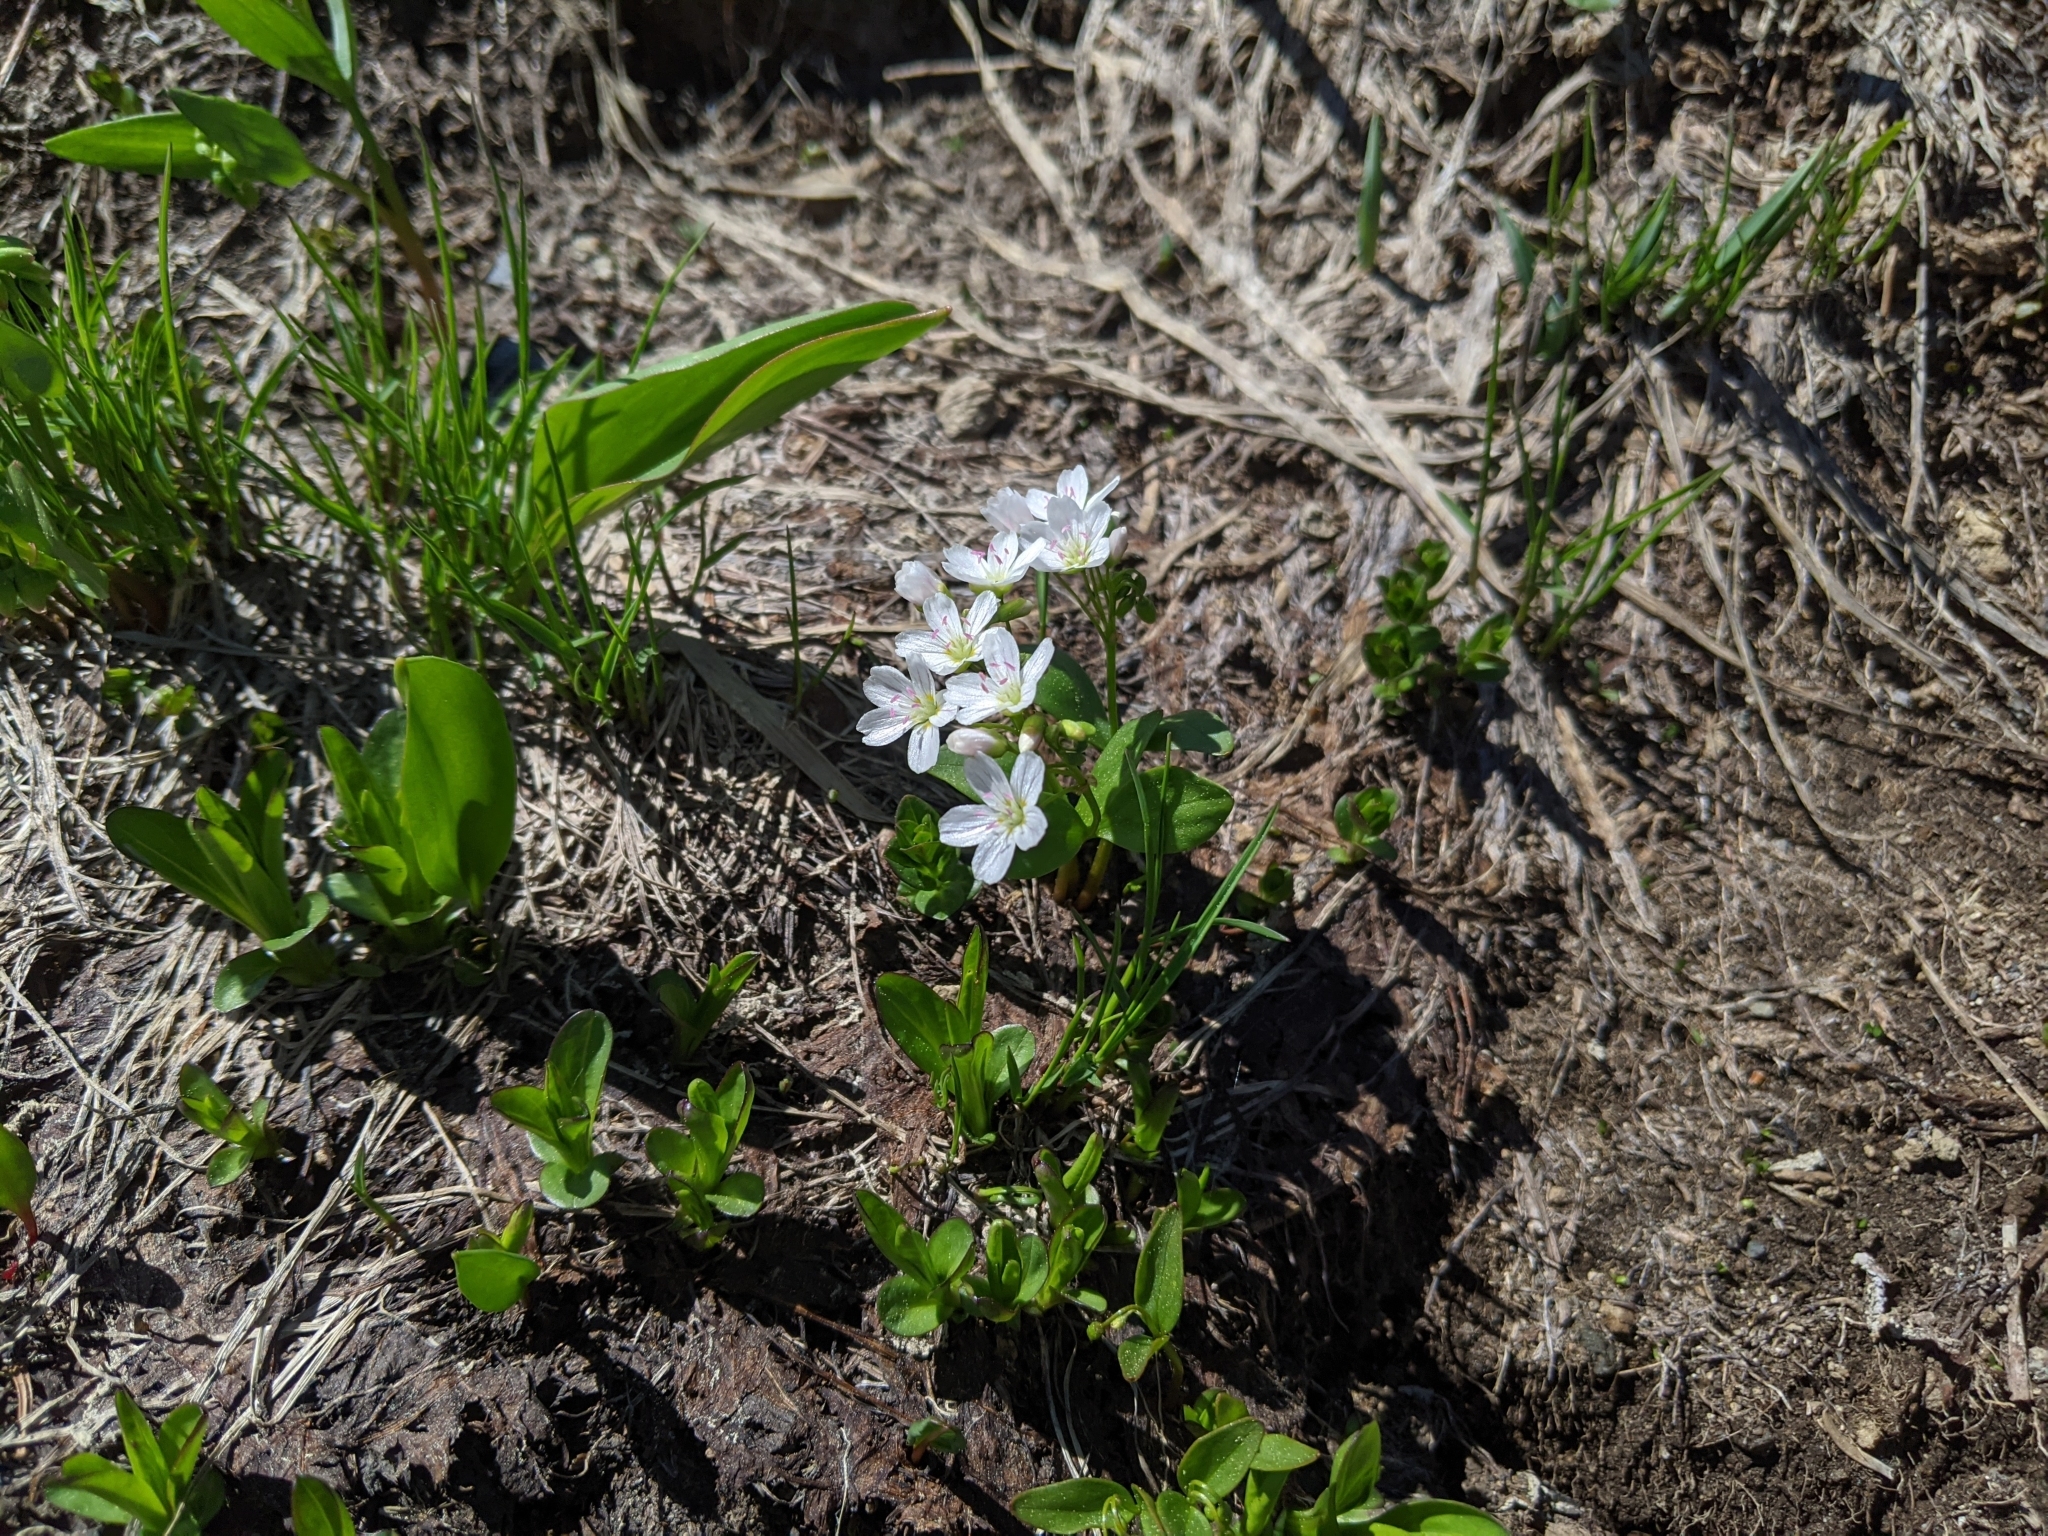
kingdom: Plantae
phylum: Tracheophyta
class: Magnoliopsida
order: Caryophyllales
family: Montiaceae
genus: Claytonia
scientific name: Claytonia lanceolata
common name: Western spring-beauty
